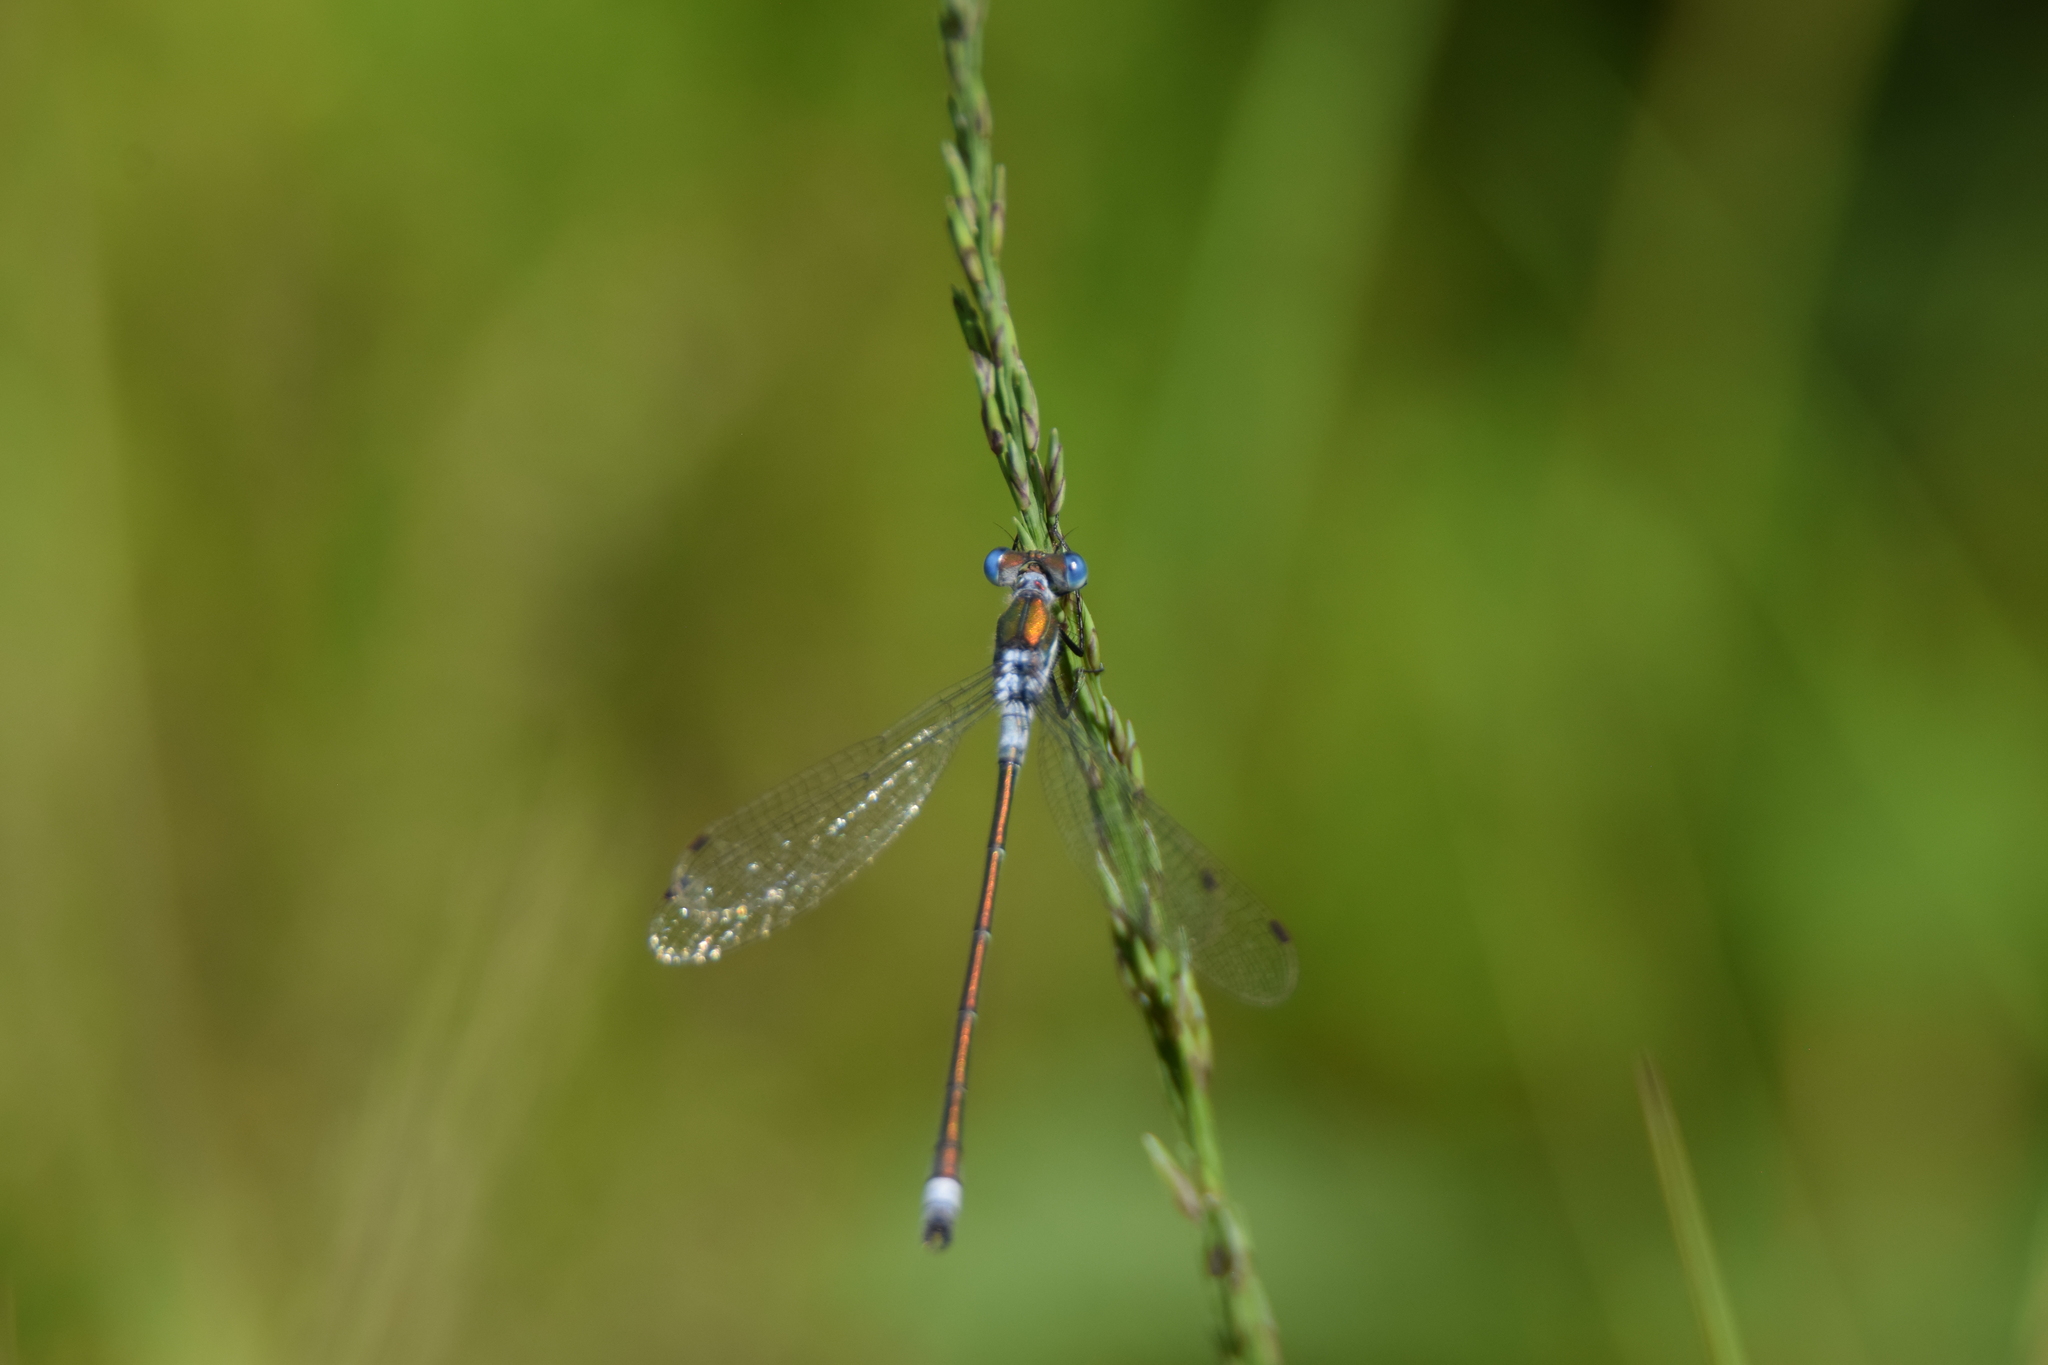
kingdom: Animalia
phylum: Arthropoda
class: Insecta
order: Odonata
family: Lestidae
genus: Lestes
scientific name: Lestes sponsa
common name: Common spreadwing
